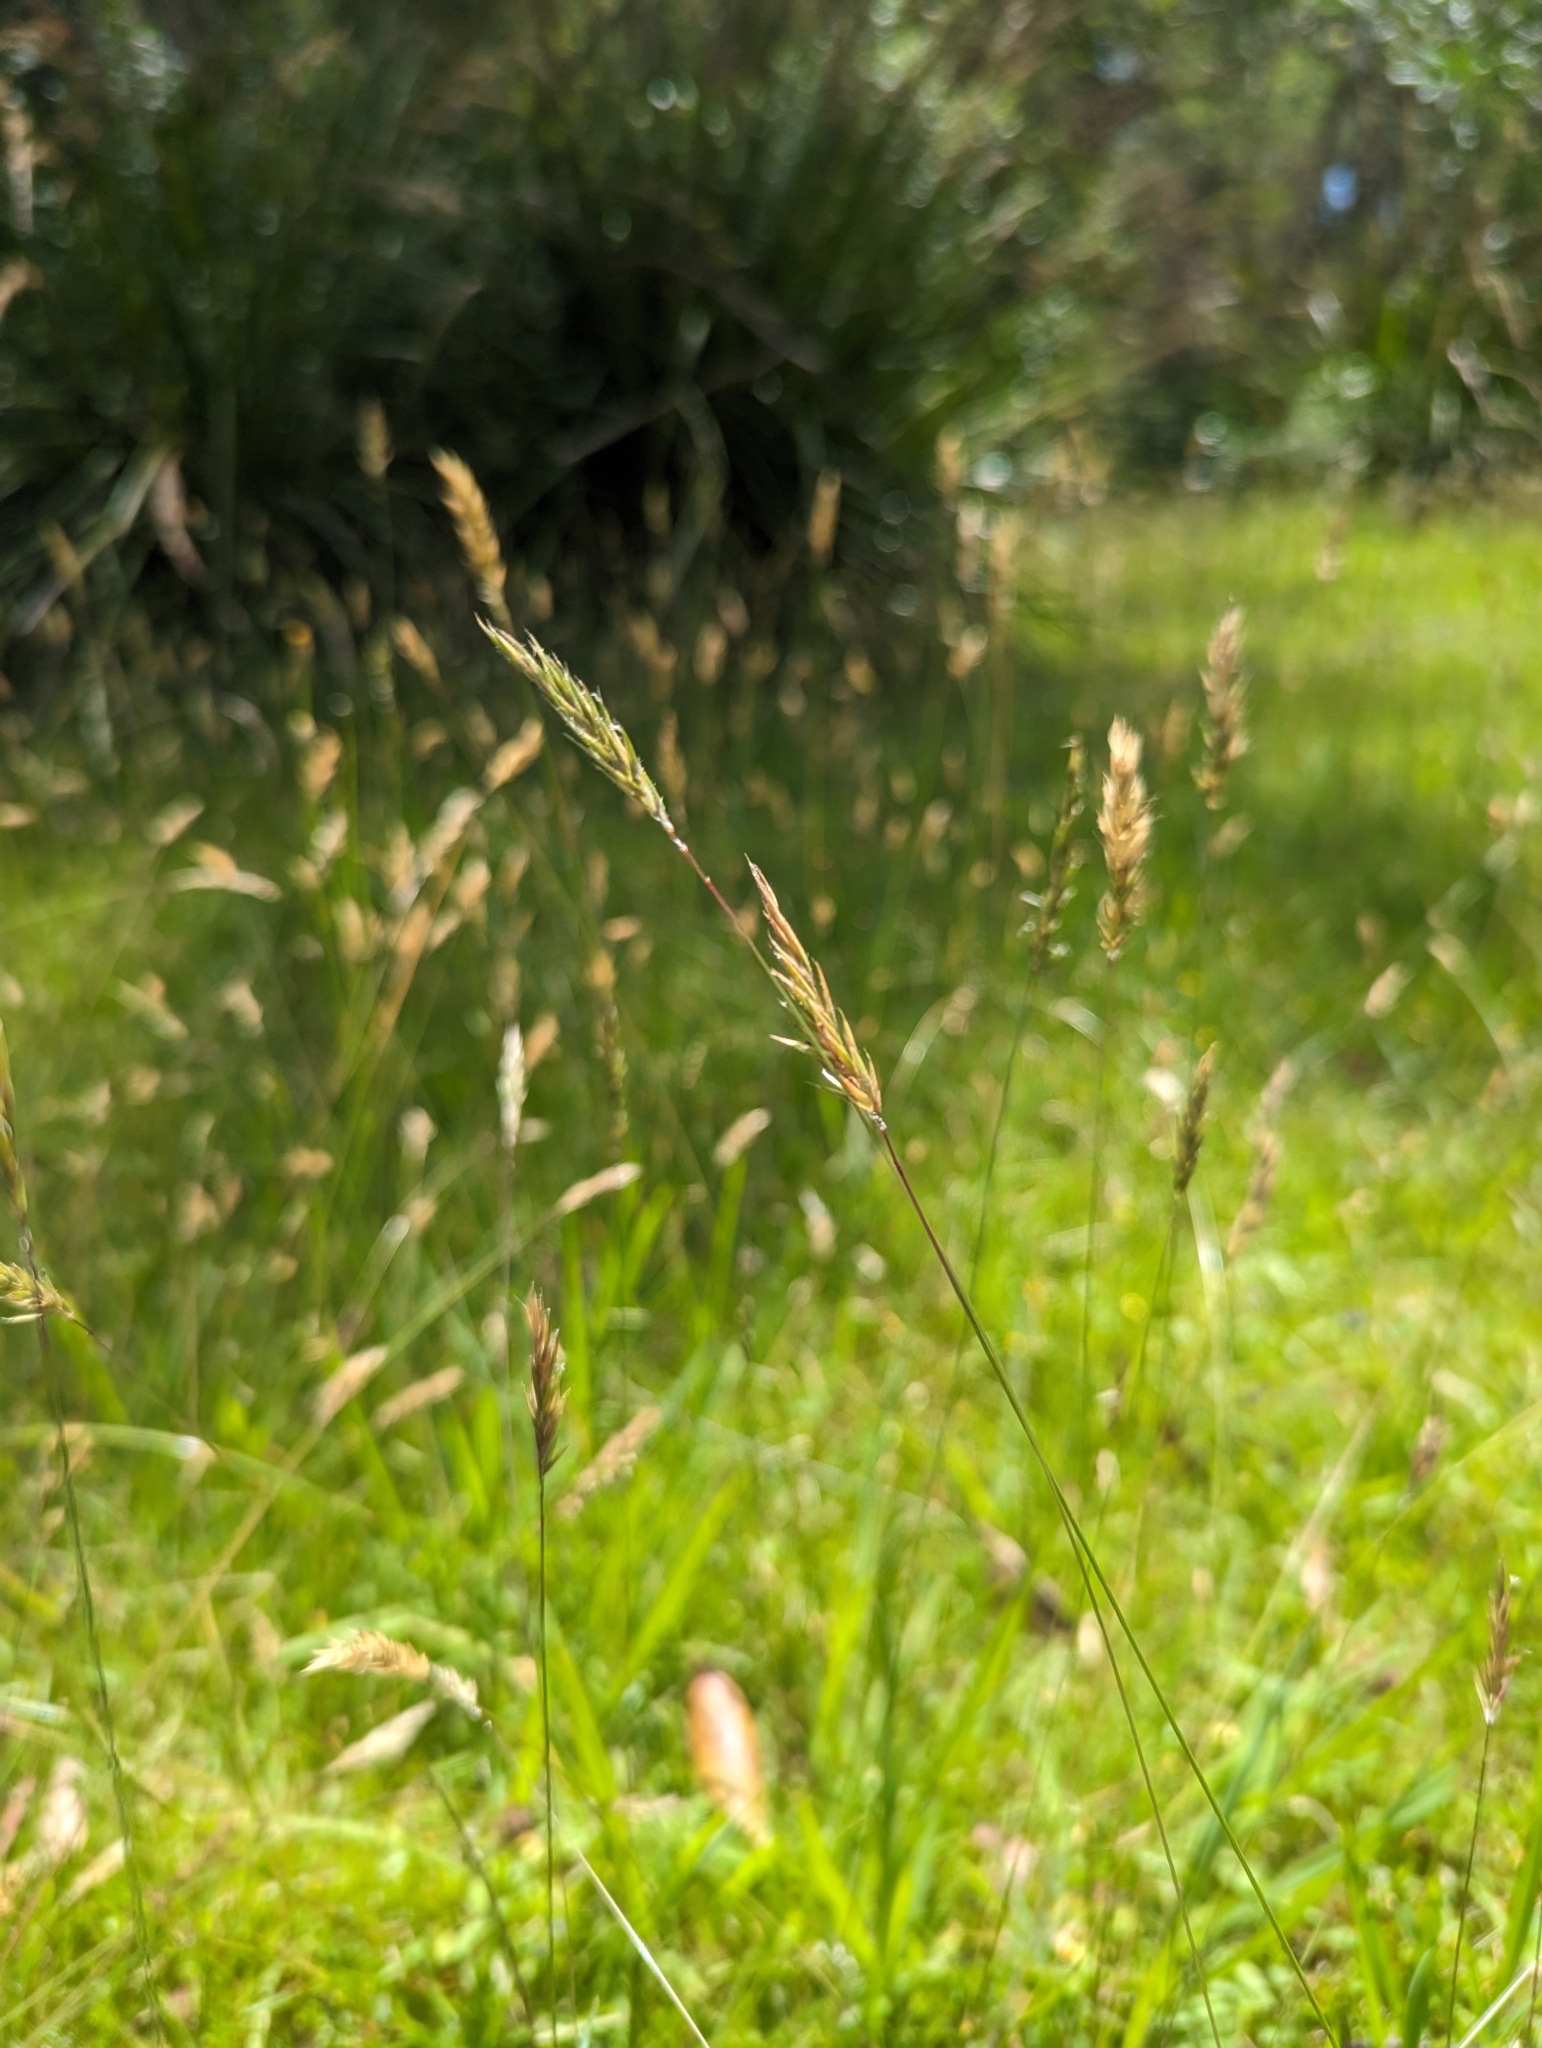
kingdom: Plantae
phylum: Tracheophyta
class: Liliopsida
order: Poales
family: Poaceae
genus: Anthoxanthum
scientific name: Anthoxanthum odoratum
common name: Sweet vernalgrass
